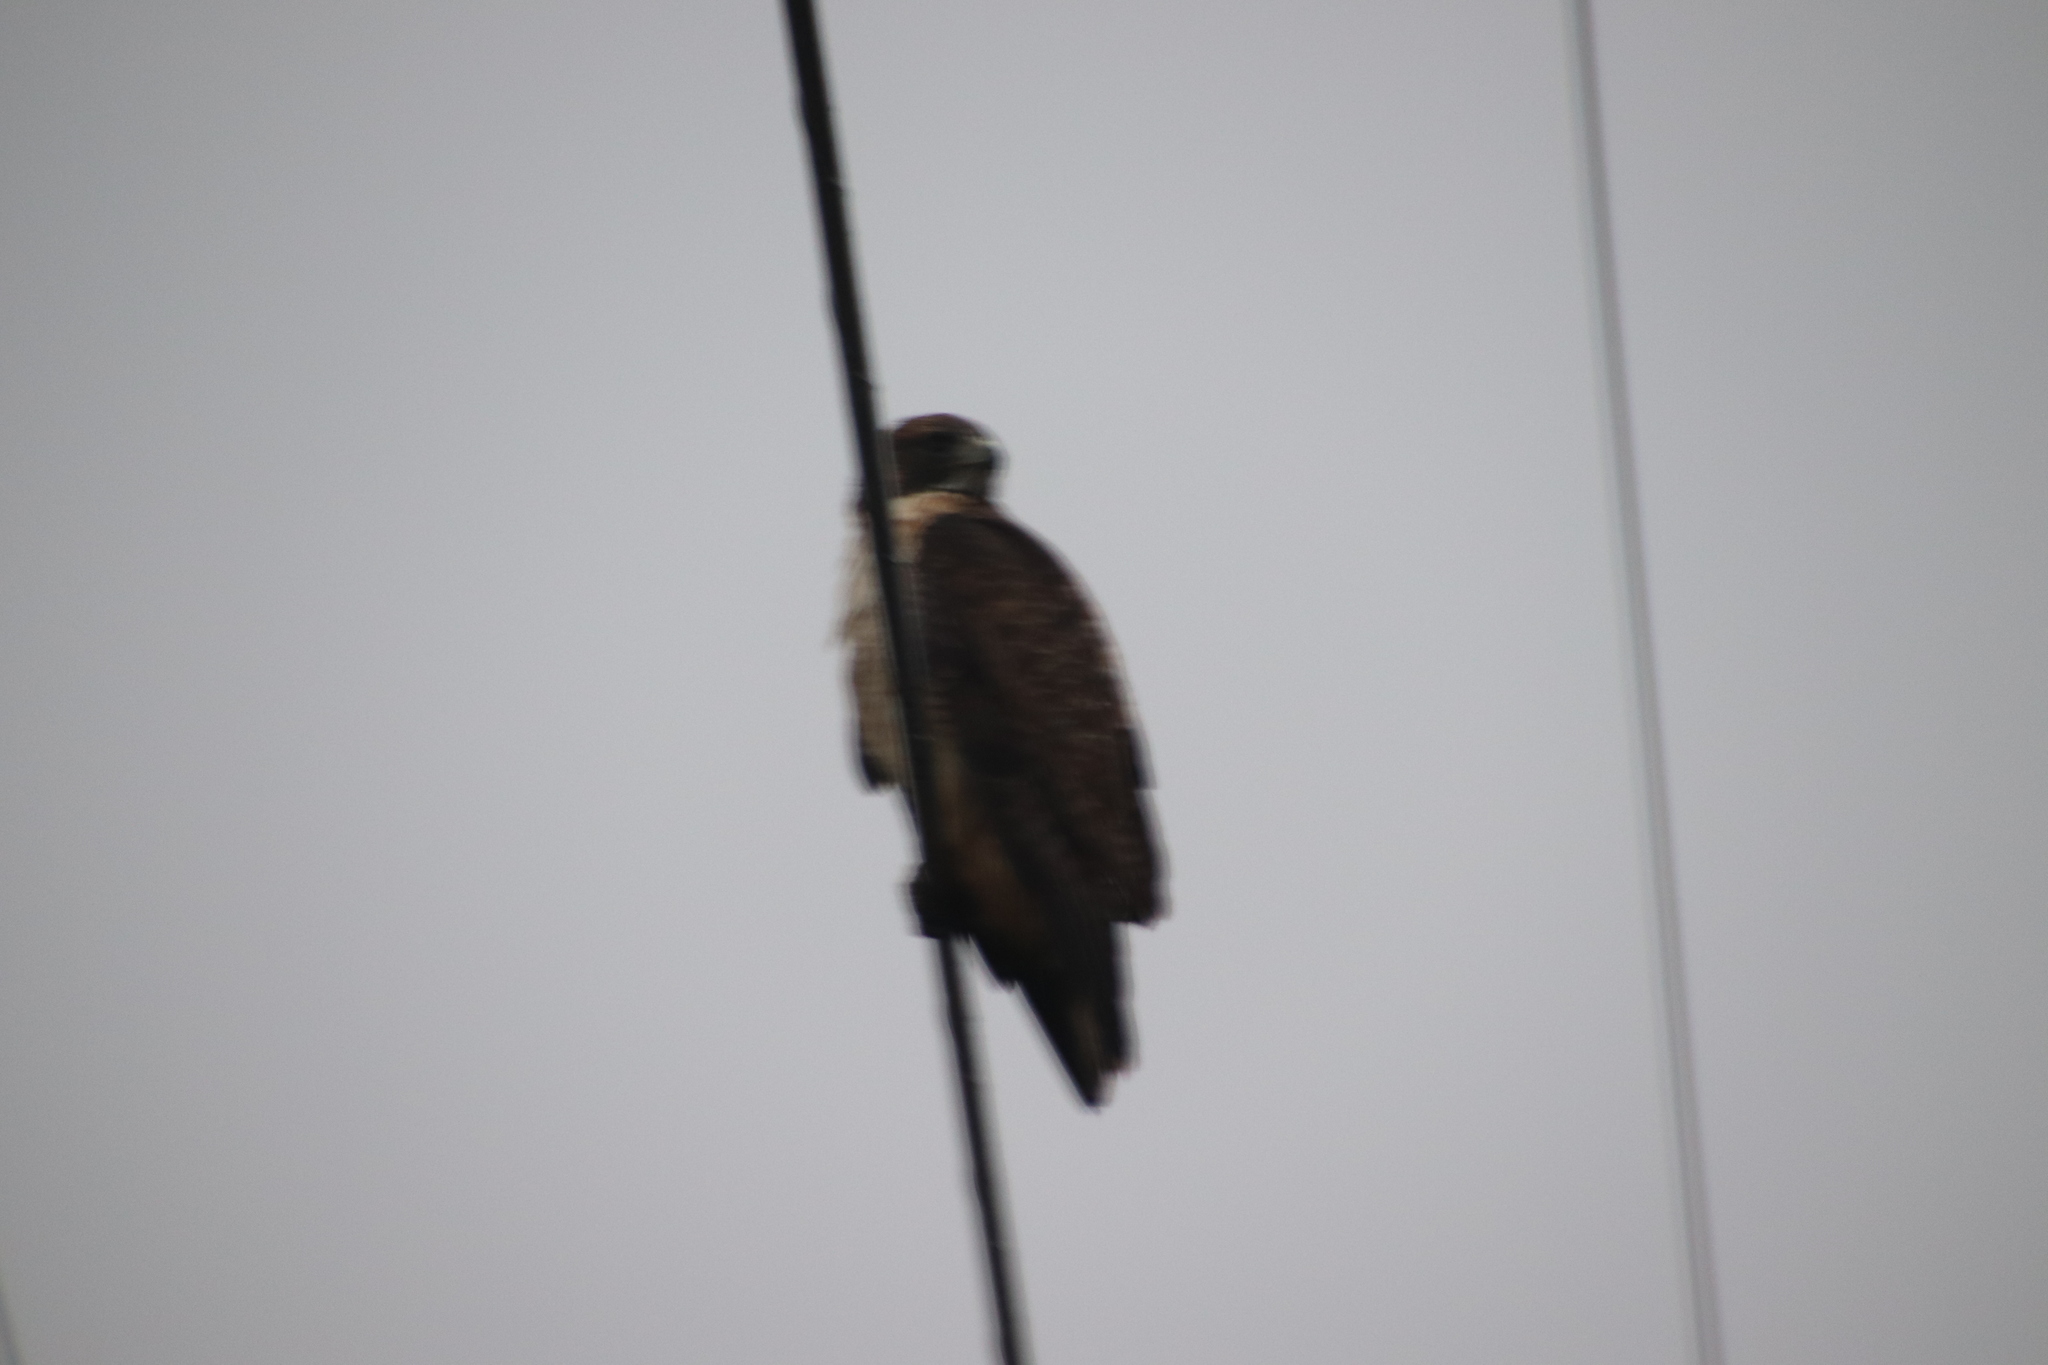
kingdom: Animalia
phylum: Chordata
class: Aves
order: Accipitriformes
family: Accipitridae
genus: Buteo
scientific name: Buteo jamaicensis
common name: Red-tailed hawk
